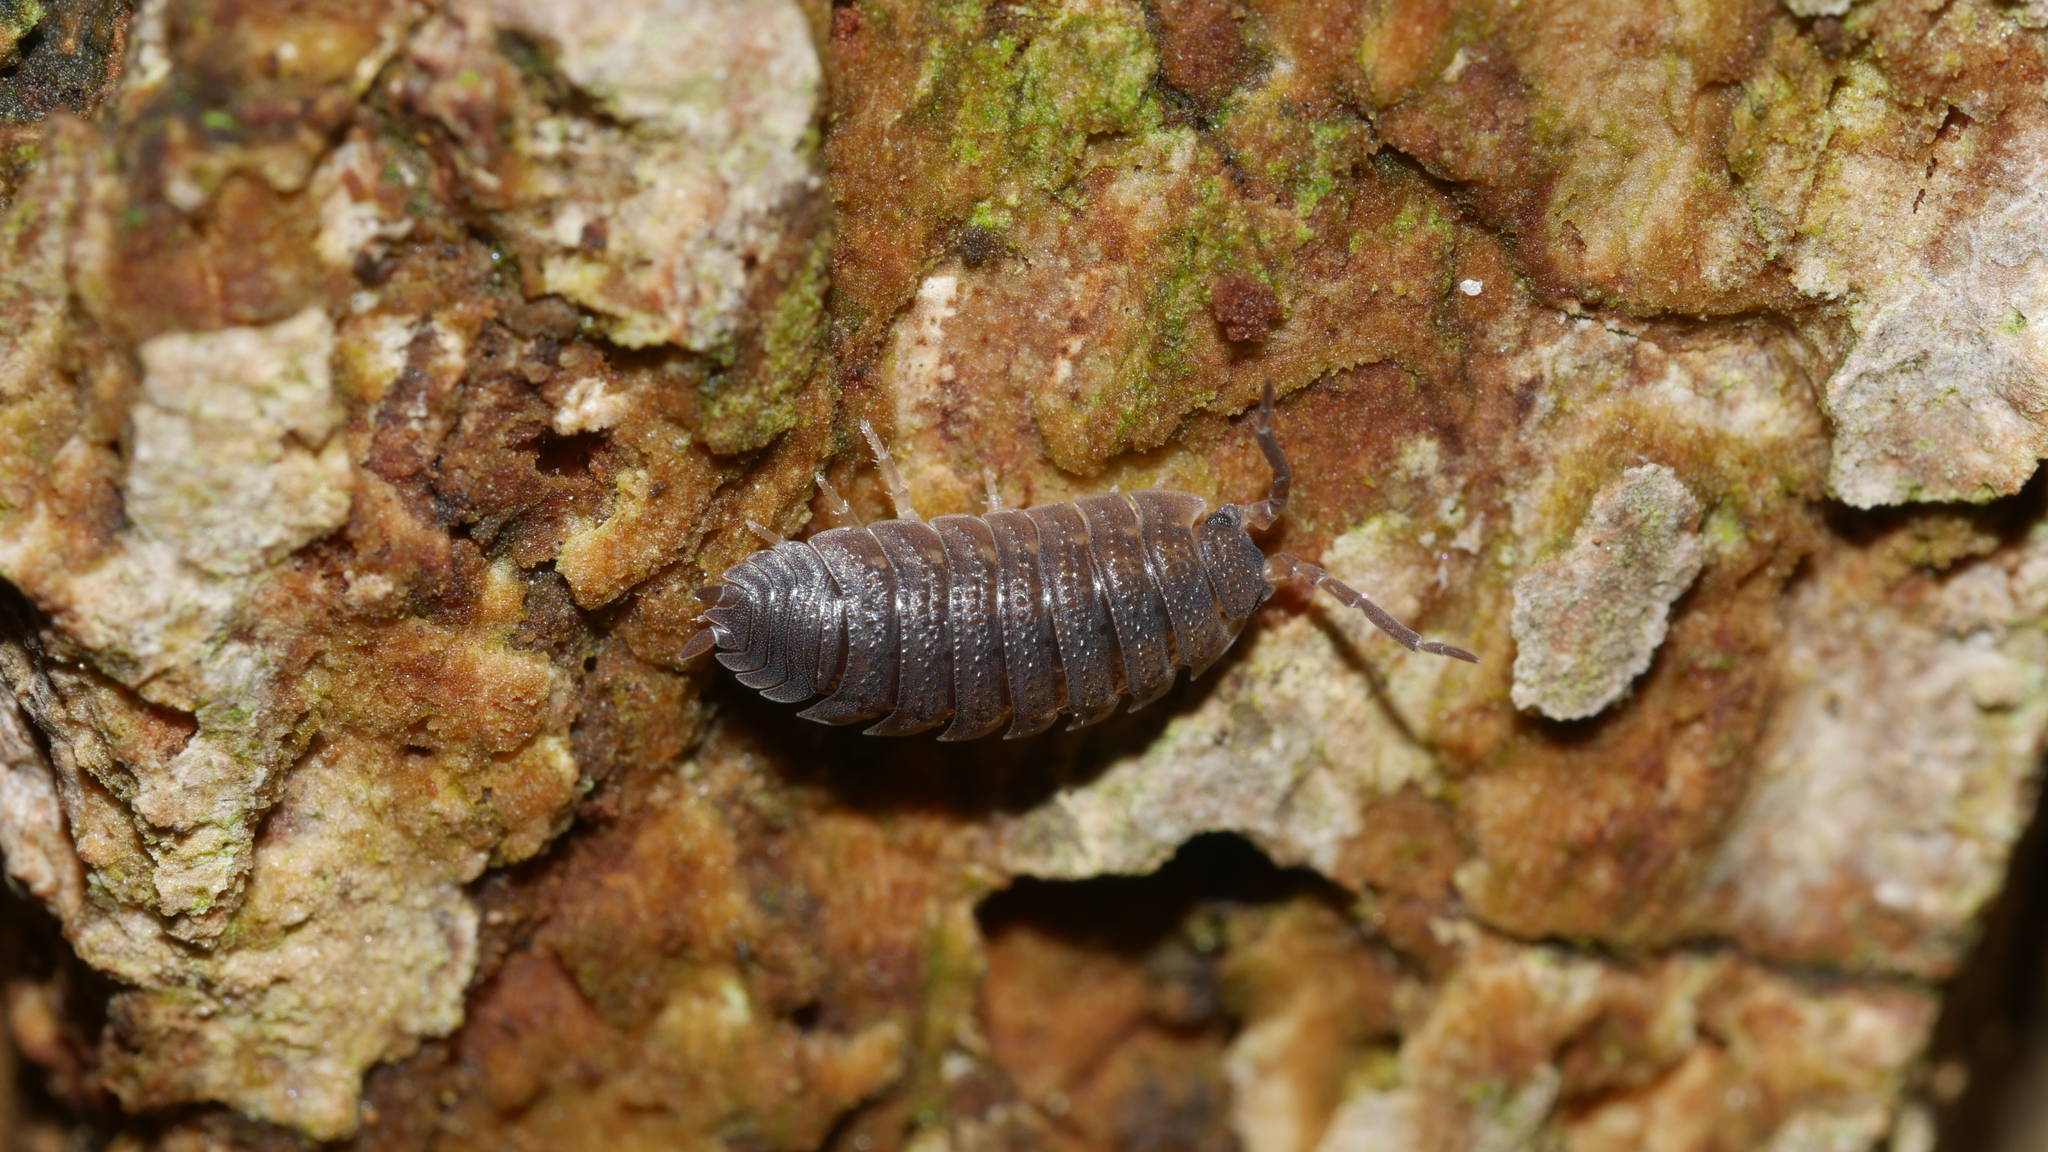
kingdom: Animalia
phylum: Arthropoda
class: Malacostraca
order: Isopoda
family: Porcellionidae
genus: Porcellio
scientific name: Porcellio scaber
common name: Common rough woodlouse
